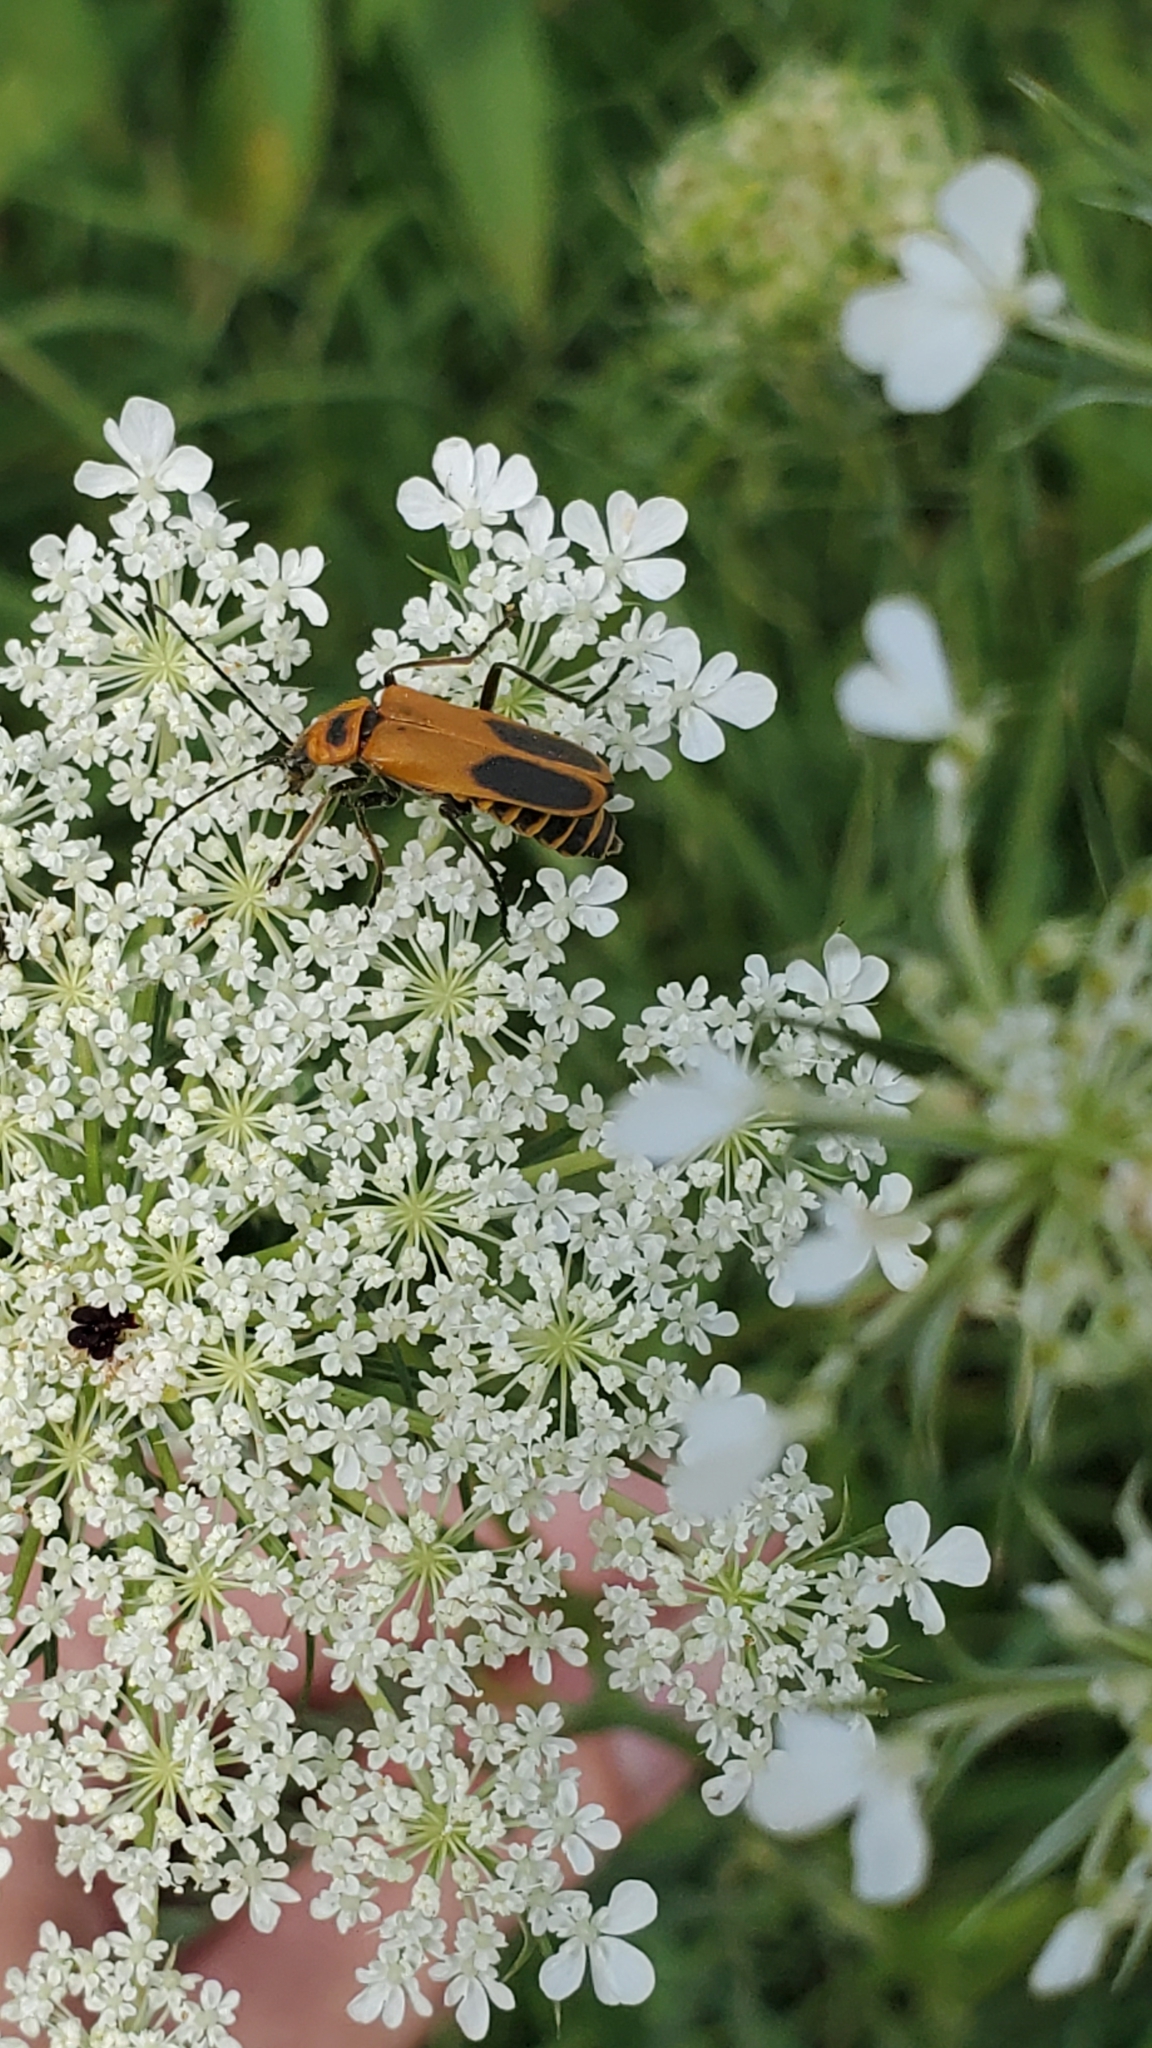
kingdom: Animalia
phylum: Arthropoda
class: Insecta
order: Coleoptera
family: Cantharidae
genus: Chauliognathus
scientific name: Chauliognathus pensylvanicus
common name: Goldenrod soldier beetle
